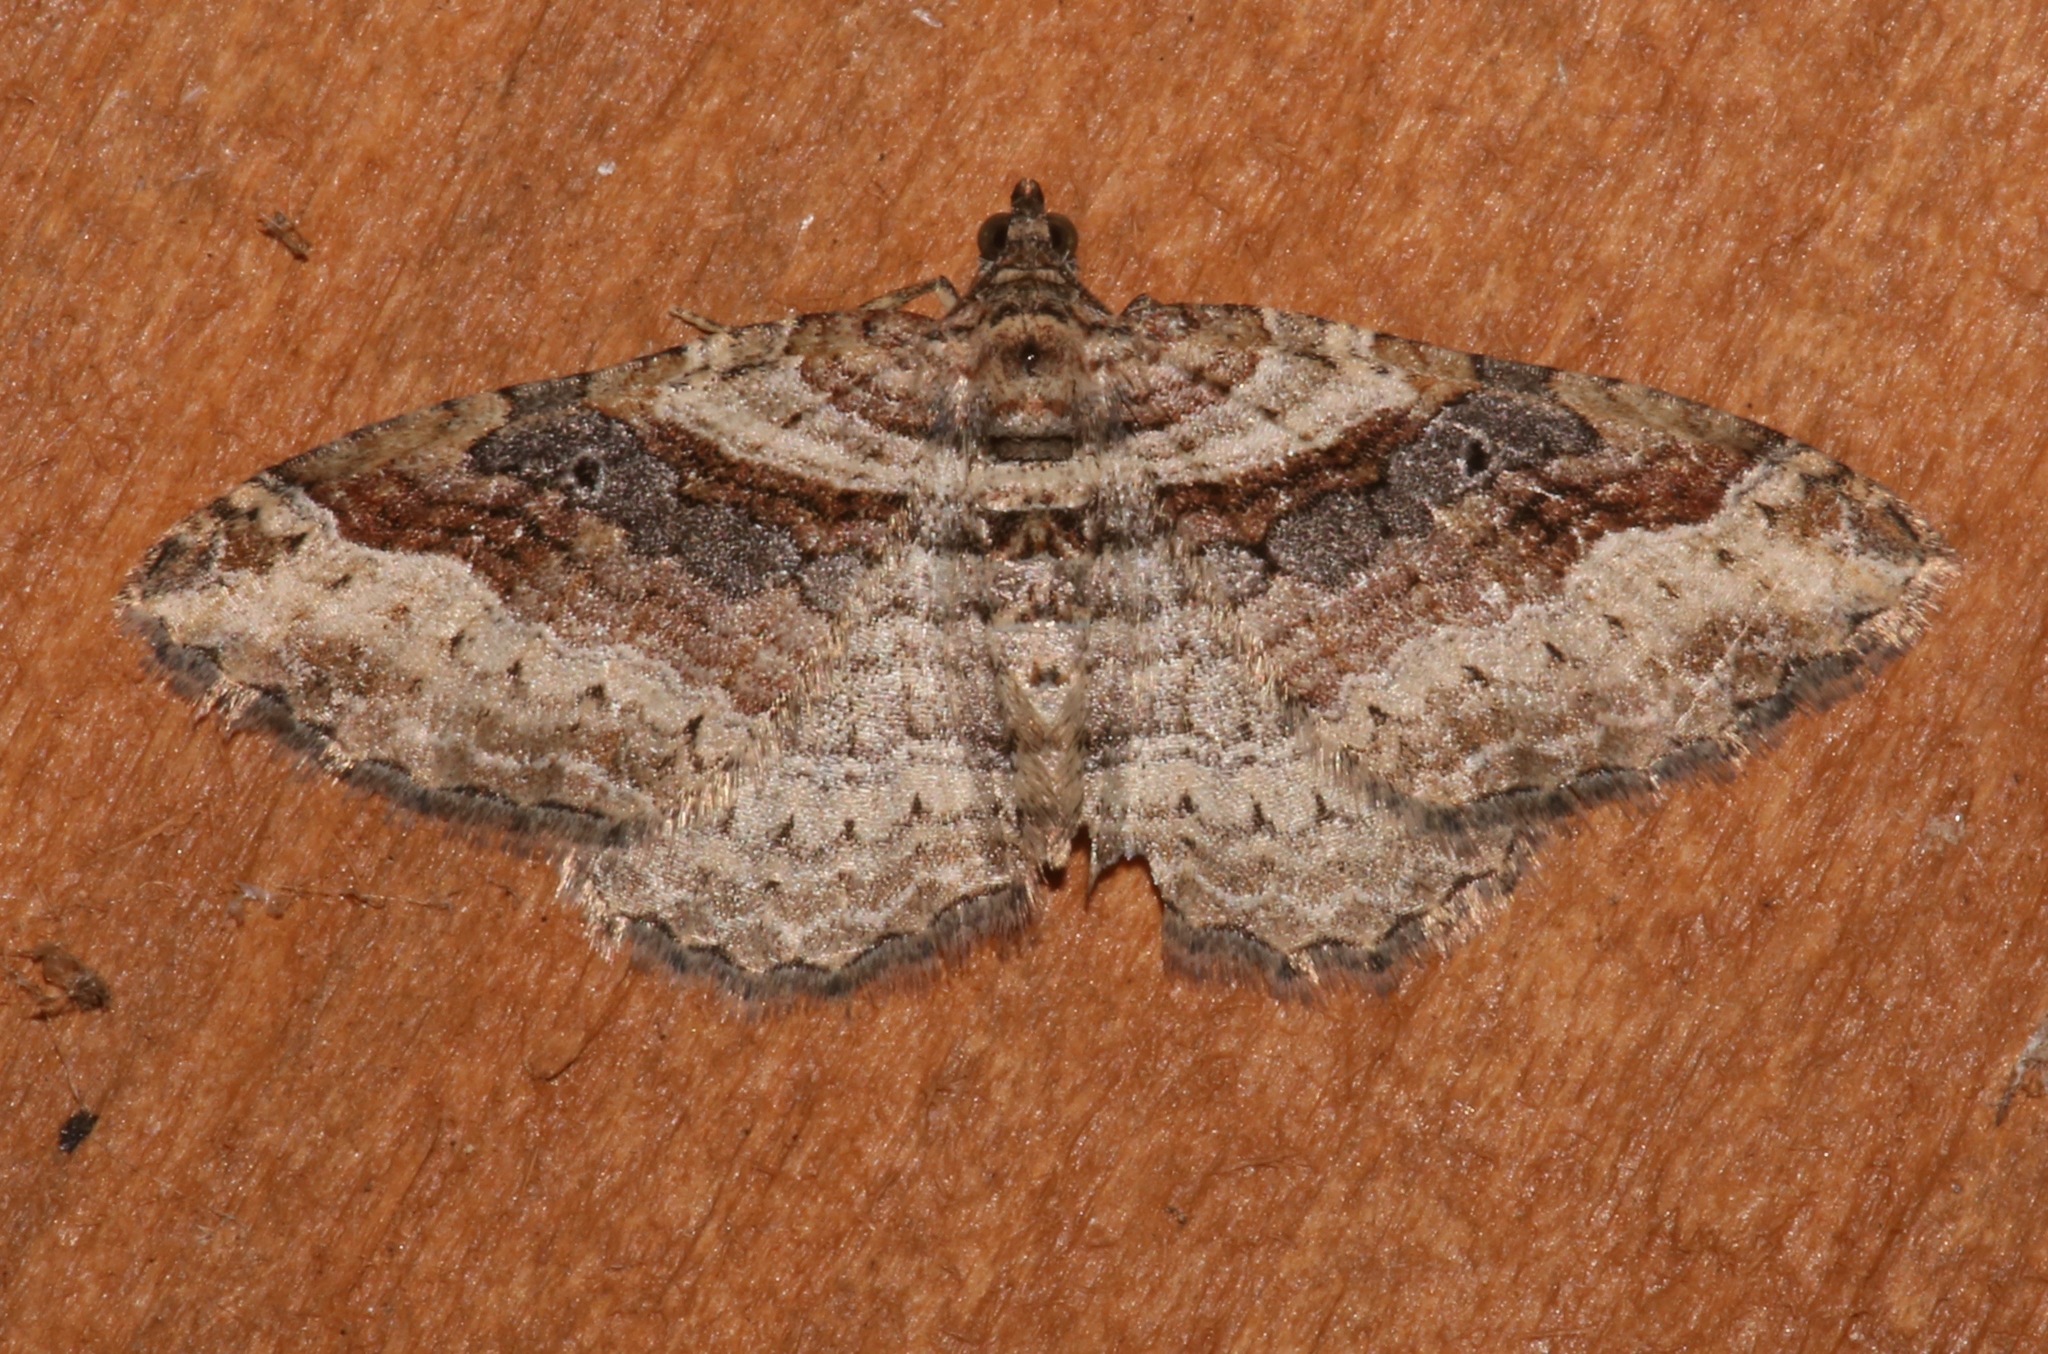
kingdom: Animalia
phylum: Arthropoda
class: Insecta
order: Lepidoptera
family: Geometridae
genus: Costaconvexa
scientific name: Costaconvexa centrostrigaria
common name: Bent-line carpet
